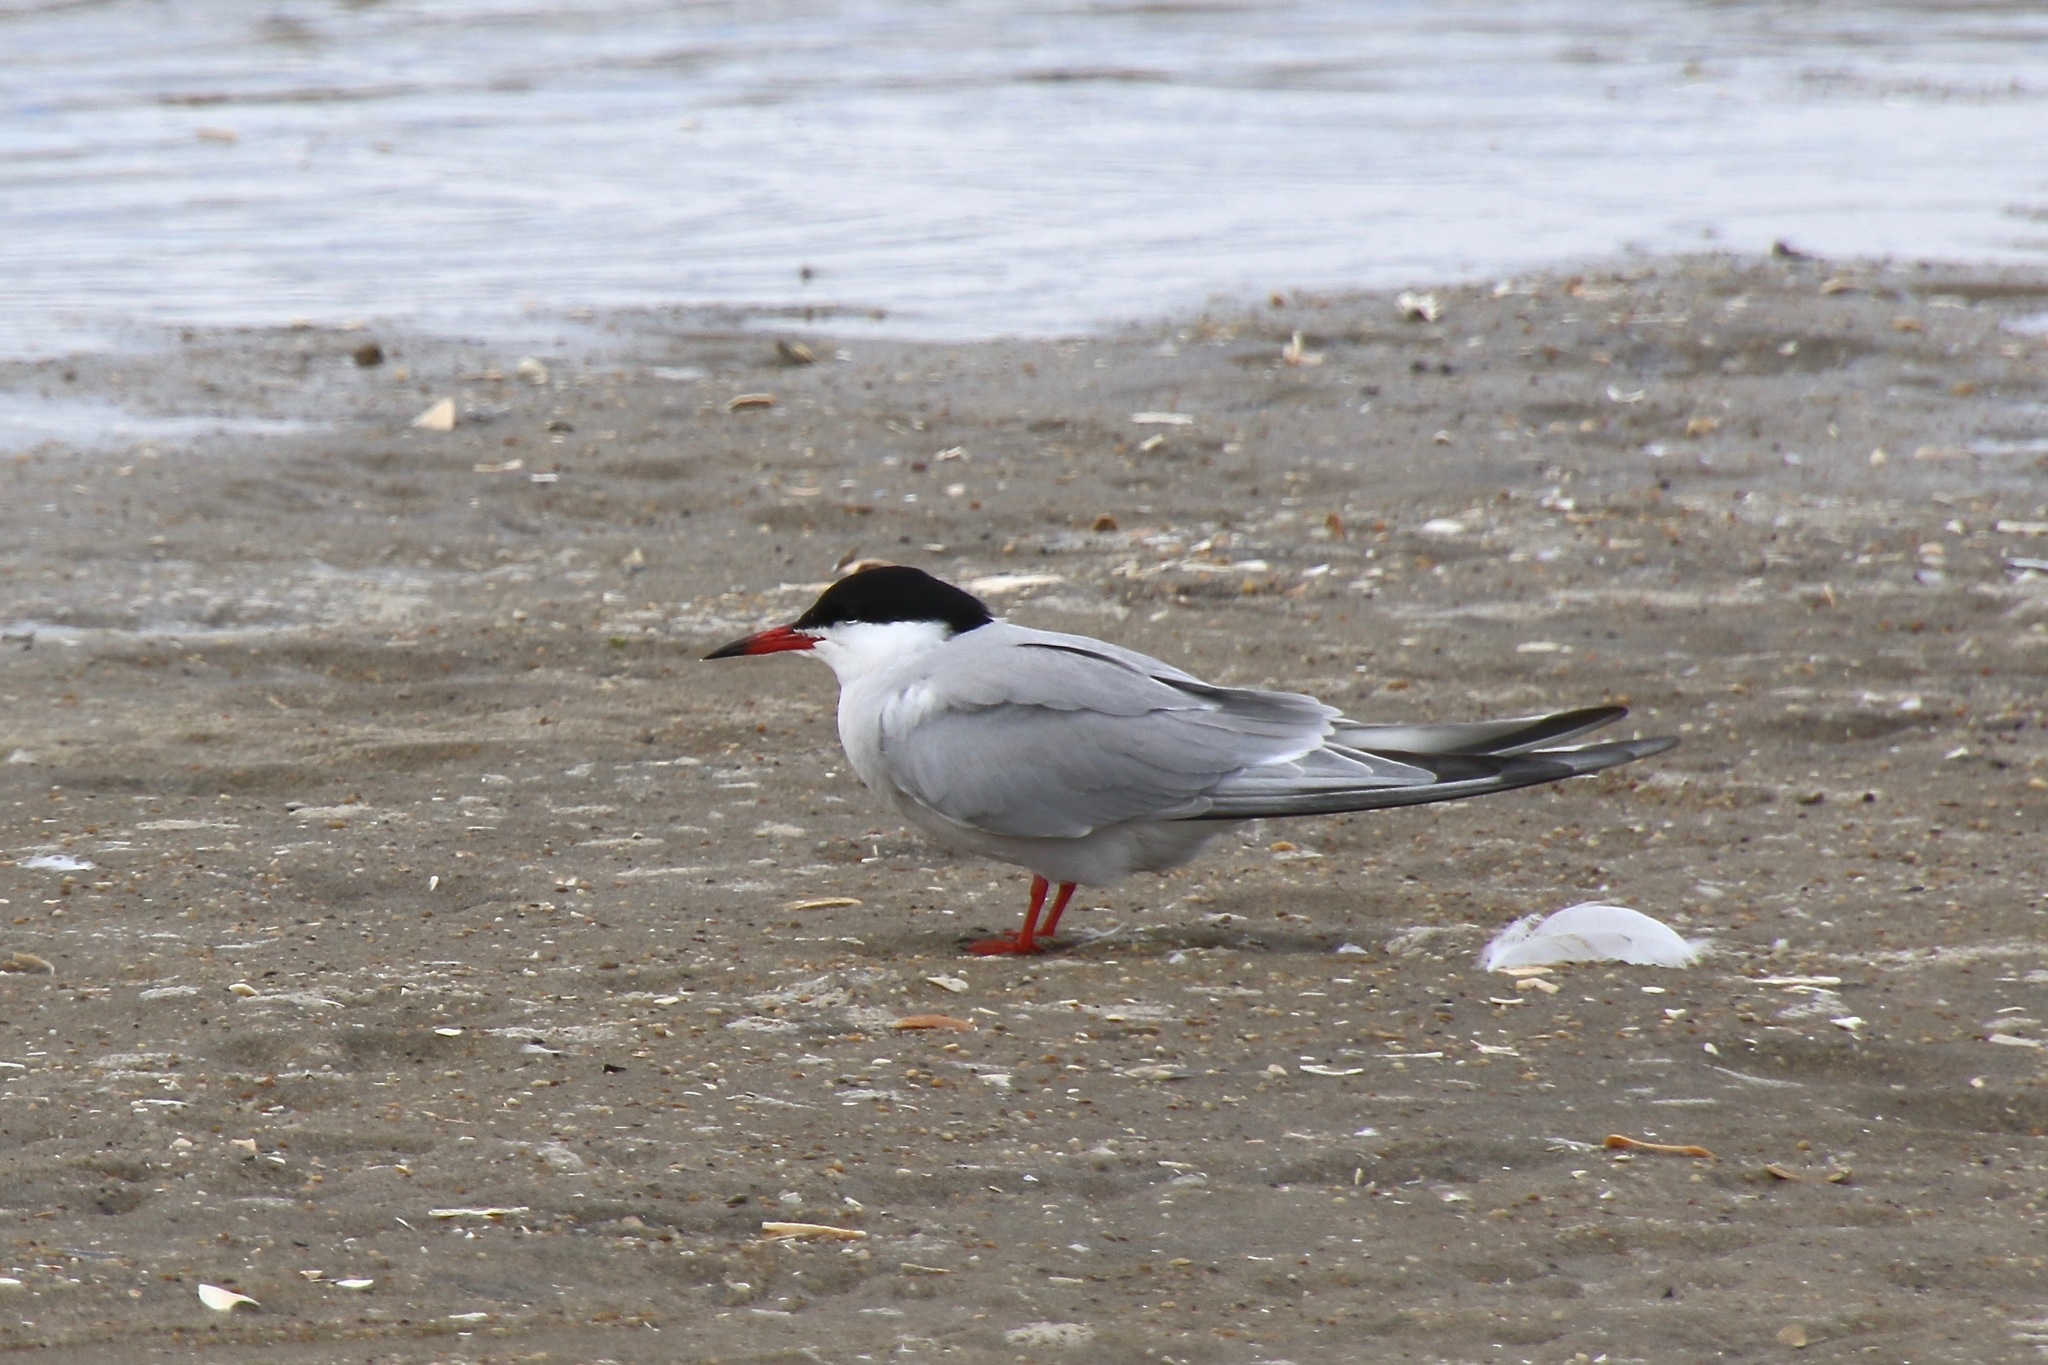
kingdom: Animalia
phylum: Chordata
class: Aves
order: Charadriiformes
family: Laridae
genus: Sterna
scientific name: Sterna hirundo
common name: Common tern
